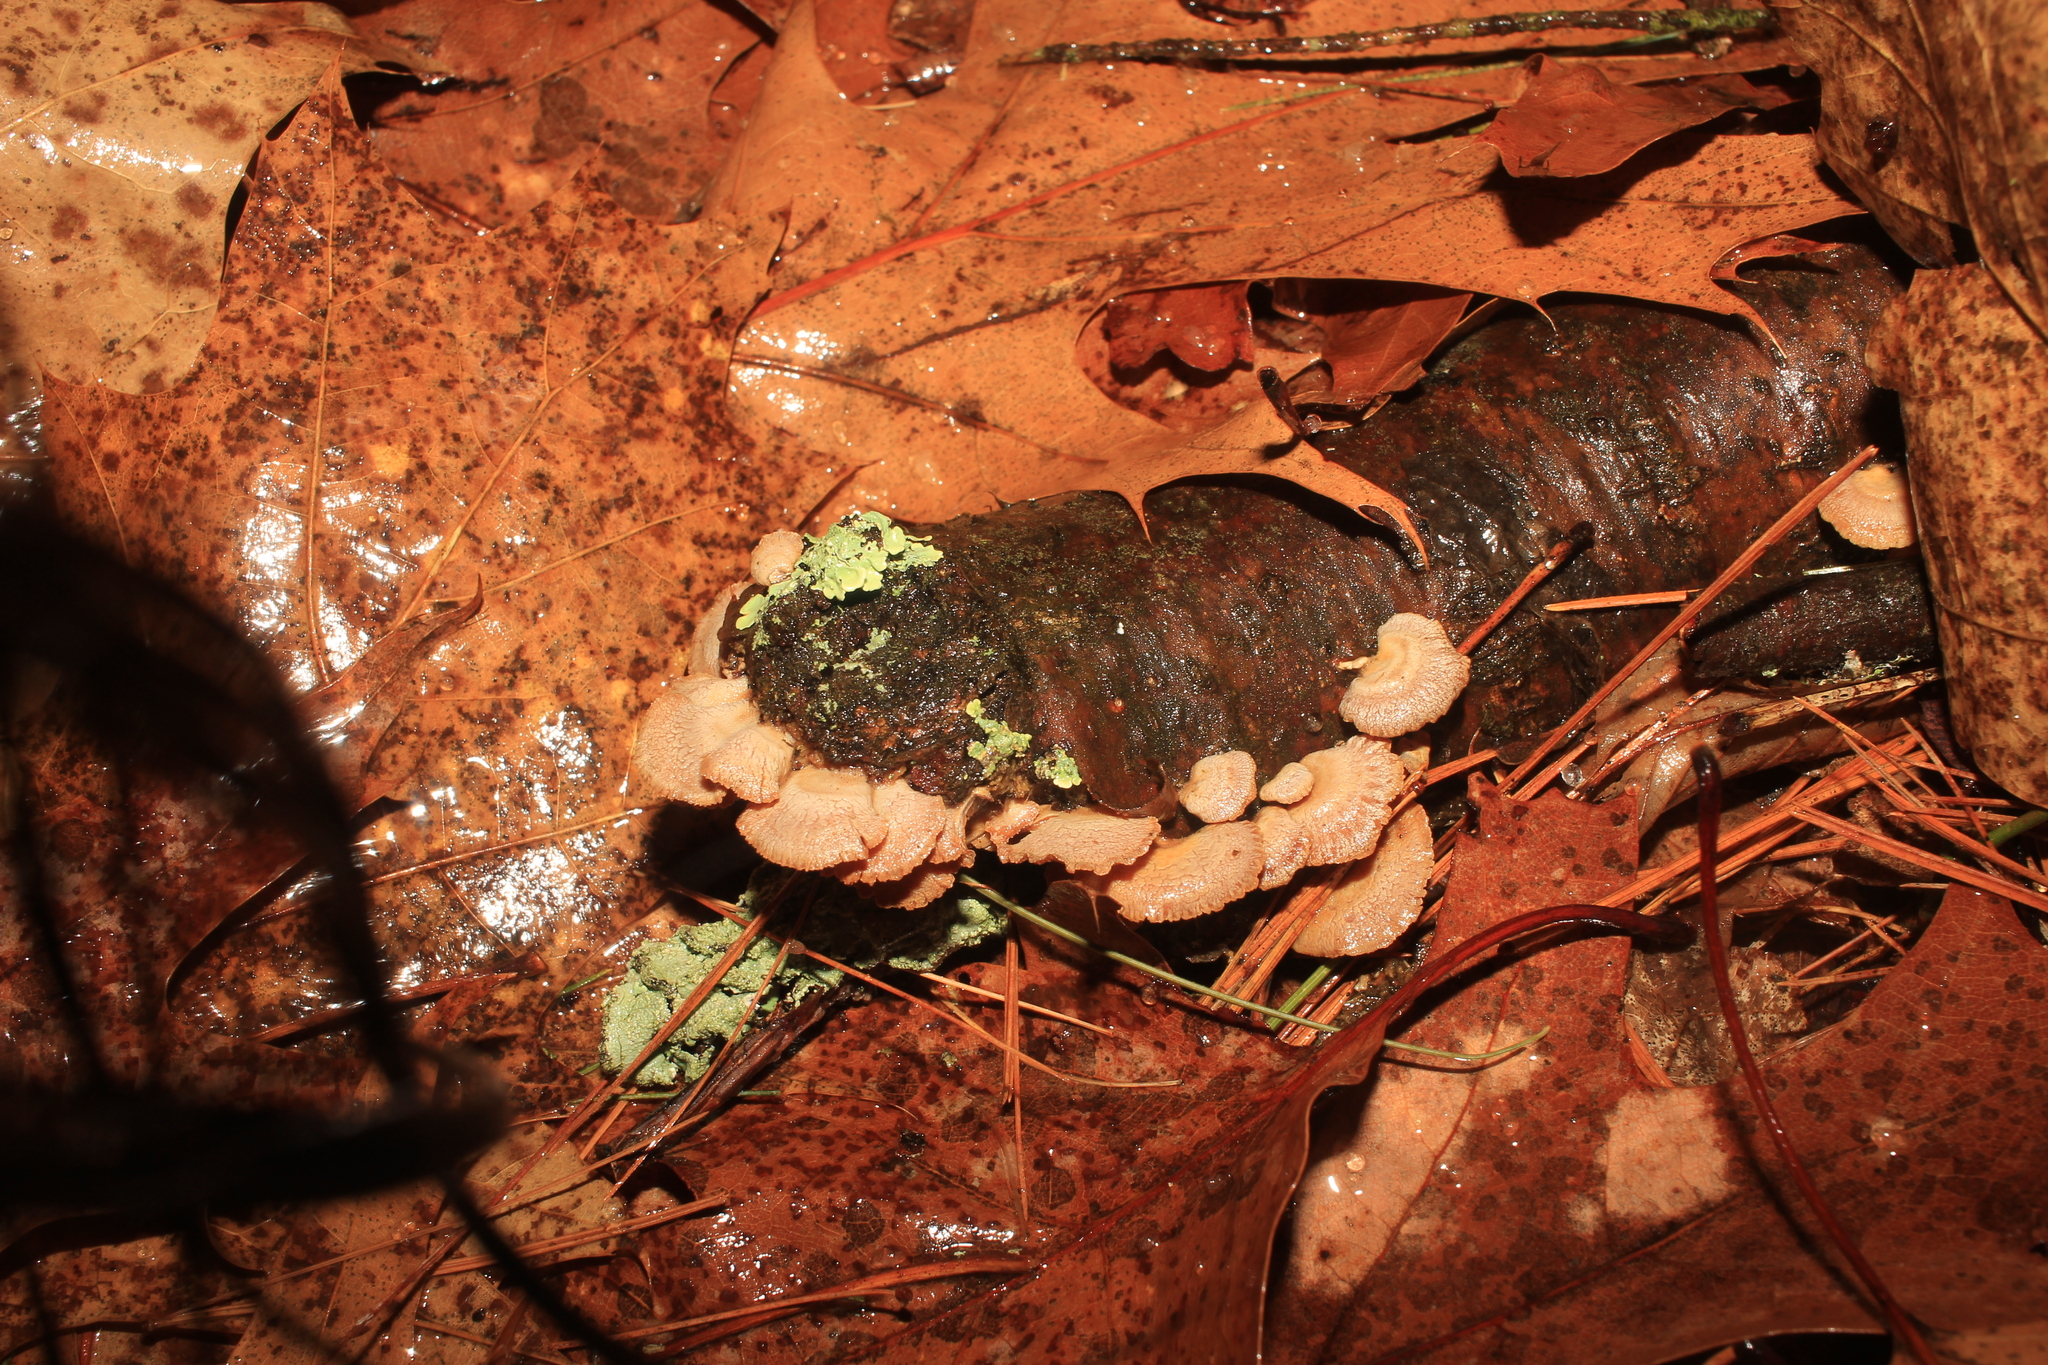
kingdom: Fungi
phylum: Basidiomycota
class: Agaricomycetes
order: Agaricales
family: Mycenaceae
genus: Panellus
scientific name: Panellus stipticus
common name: Bitter oysterling
